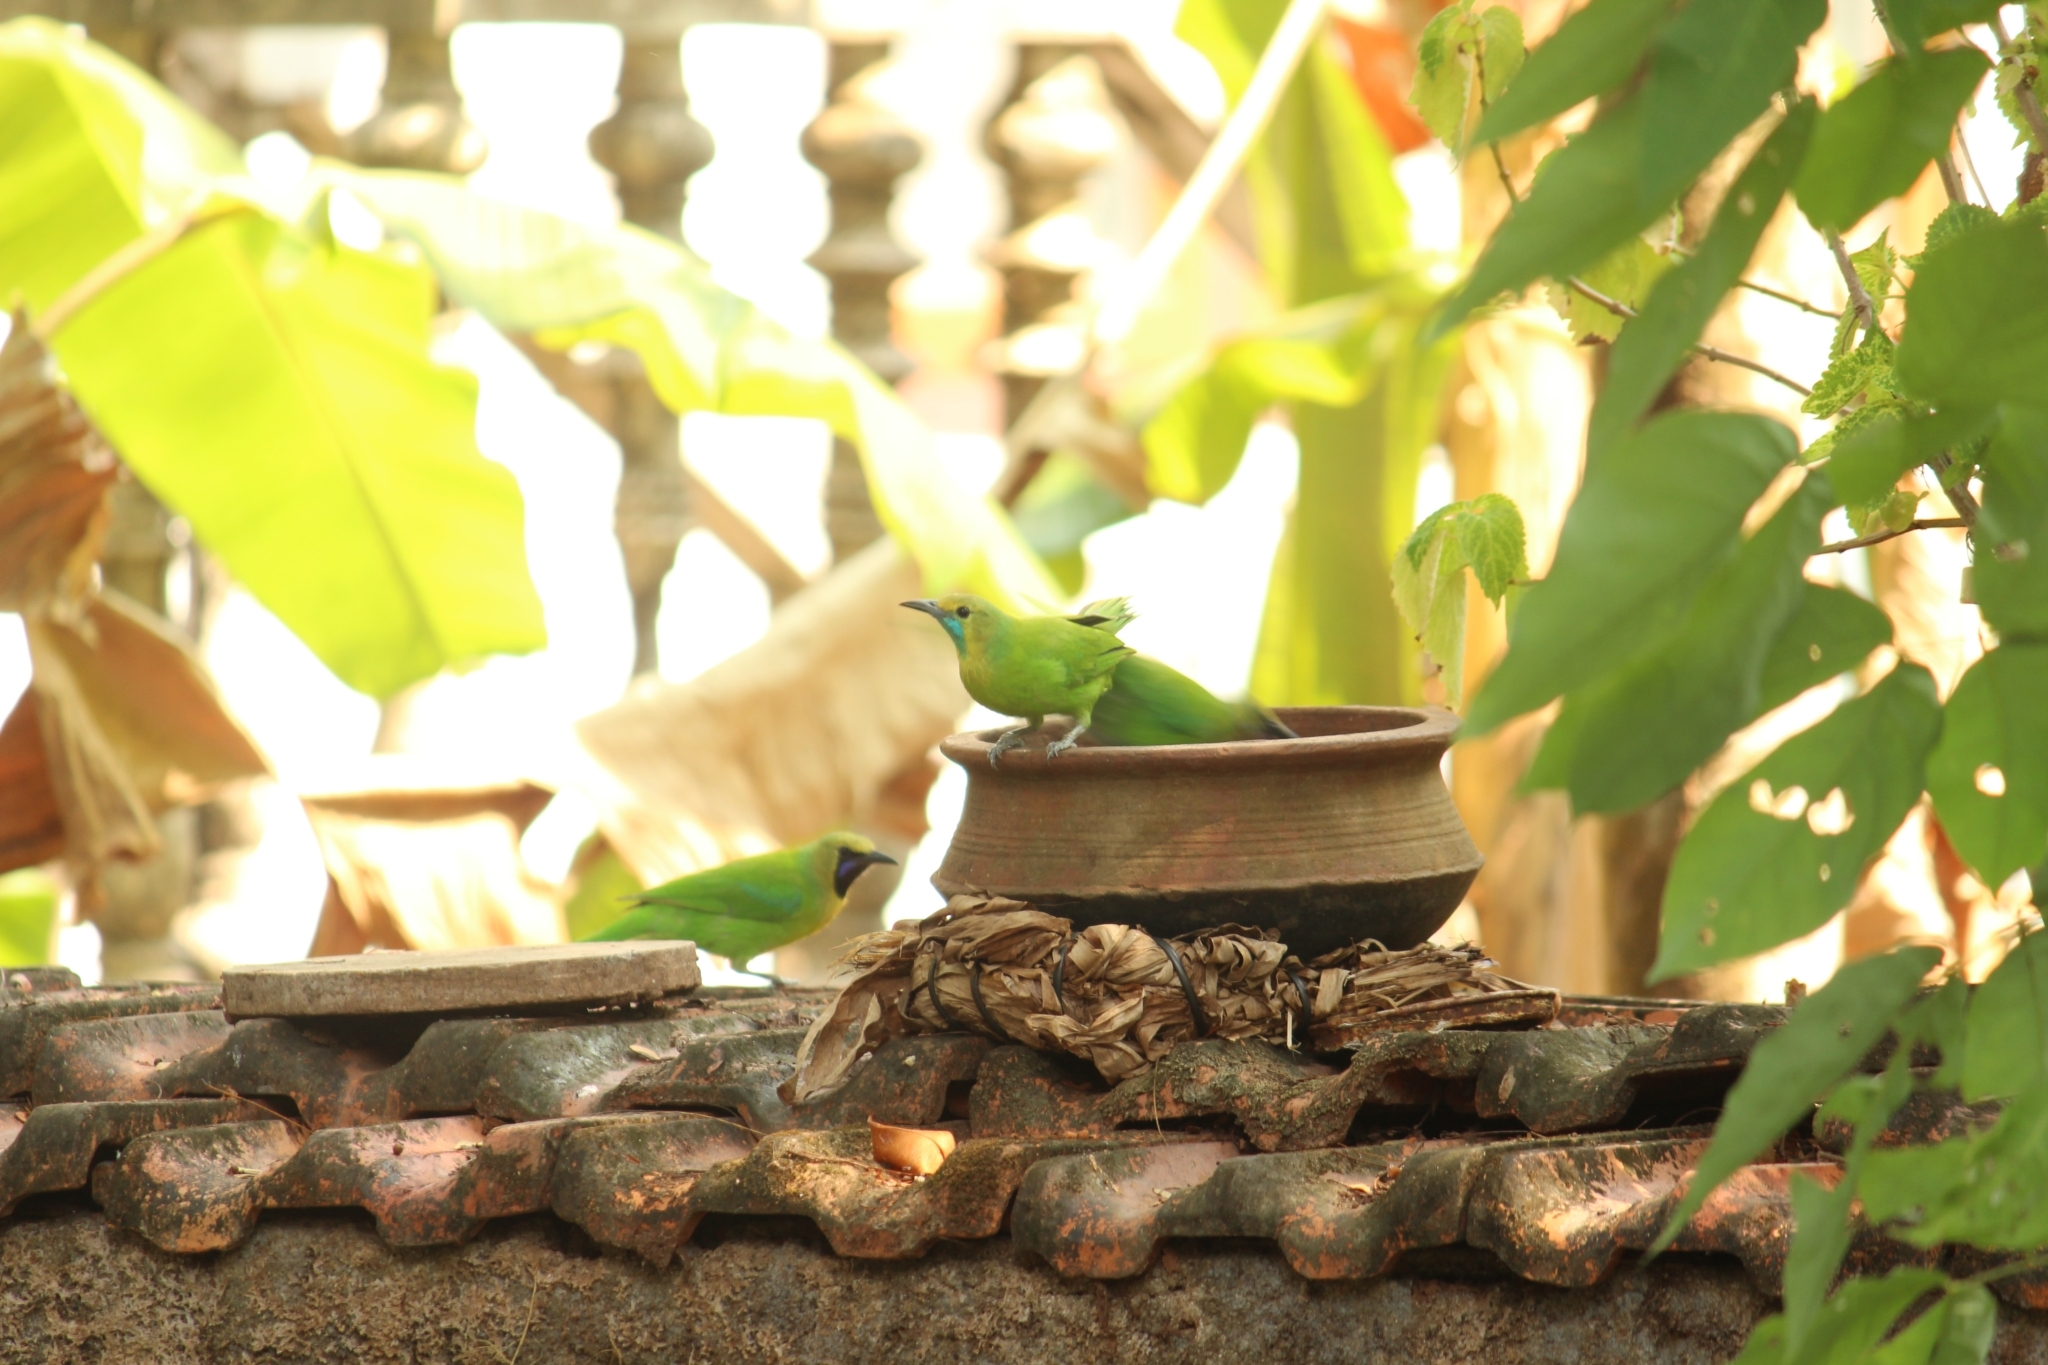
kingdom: Animalia
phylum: Chordata
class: Aves
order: Passeriformes
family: Chloropseidae
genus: Chloropsis
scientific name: Chloropsis jerdoni
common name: Jerdon's leafbird
